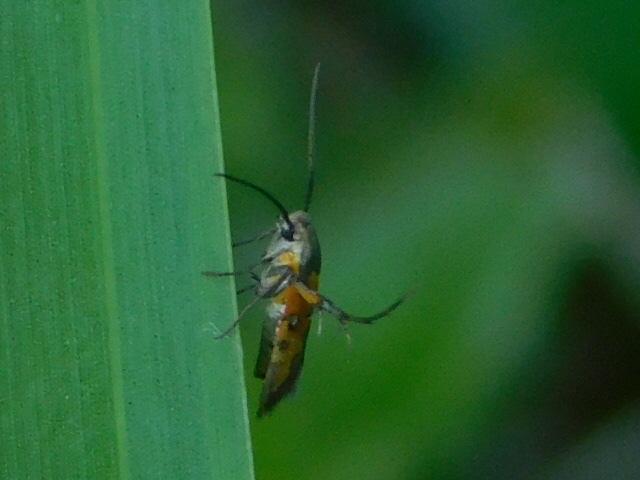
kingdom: Animalia
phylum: Arthropoda
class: Insecta
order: Lepidoptera
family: Heliodinidae
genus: Heliodines
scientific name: Heliodines
